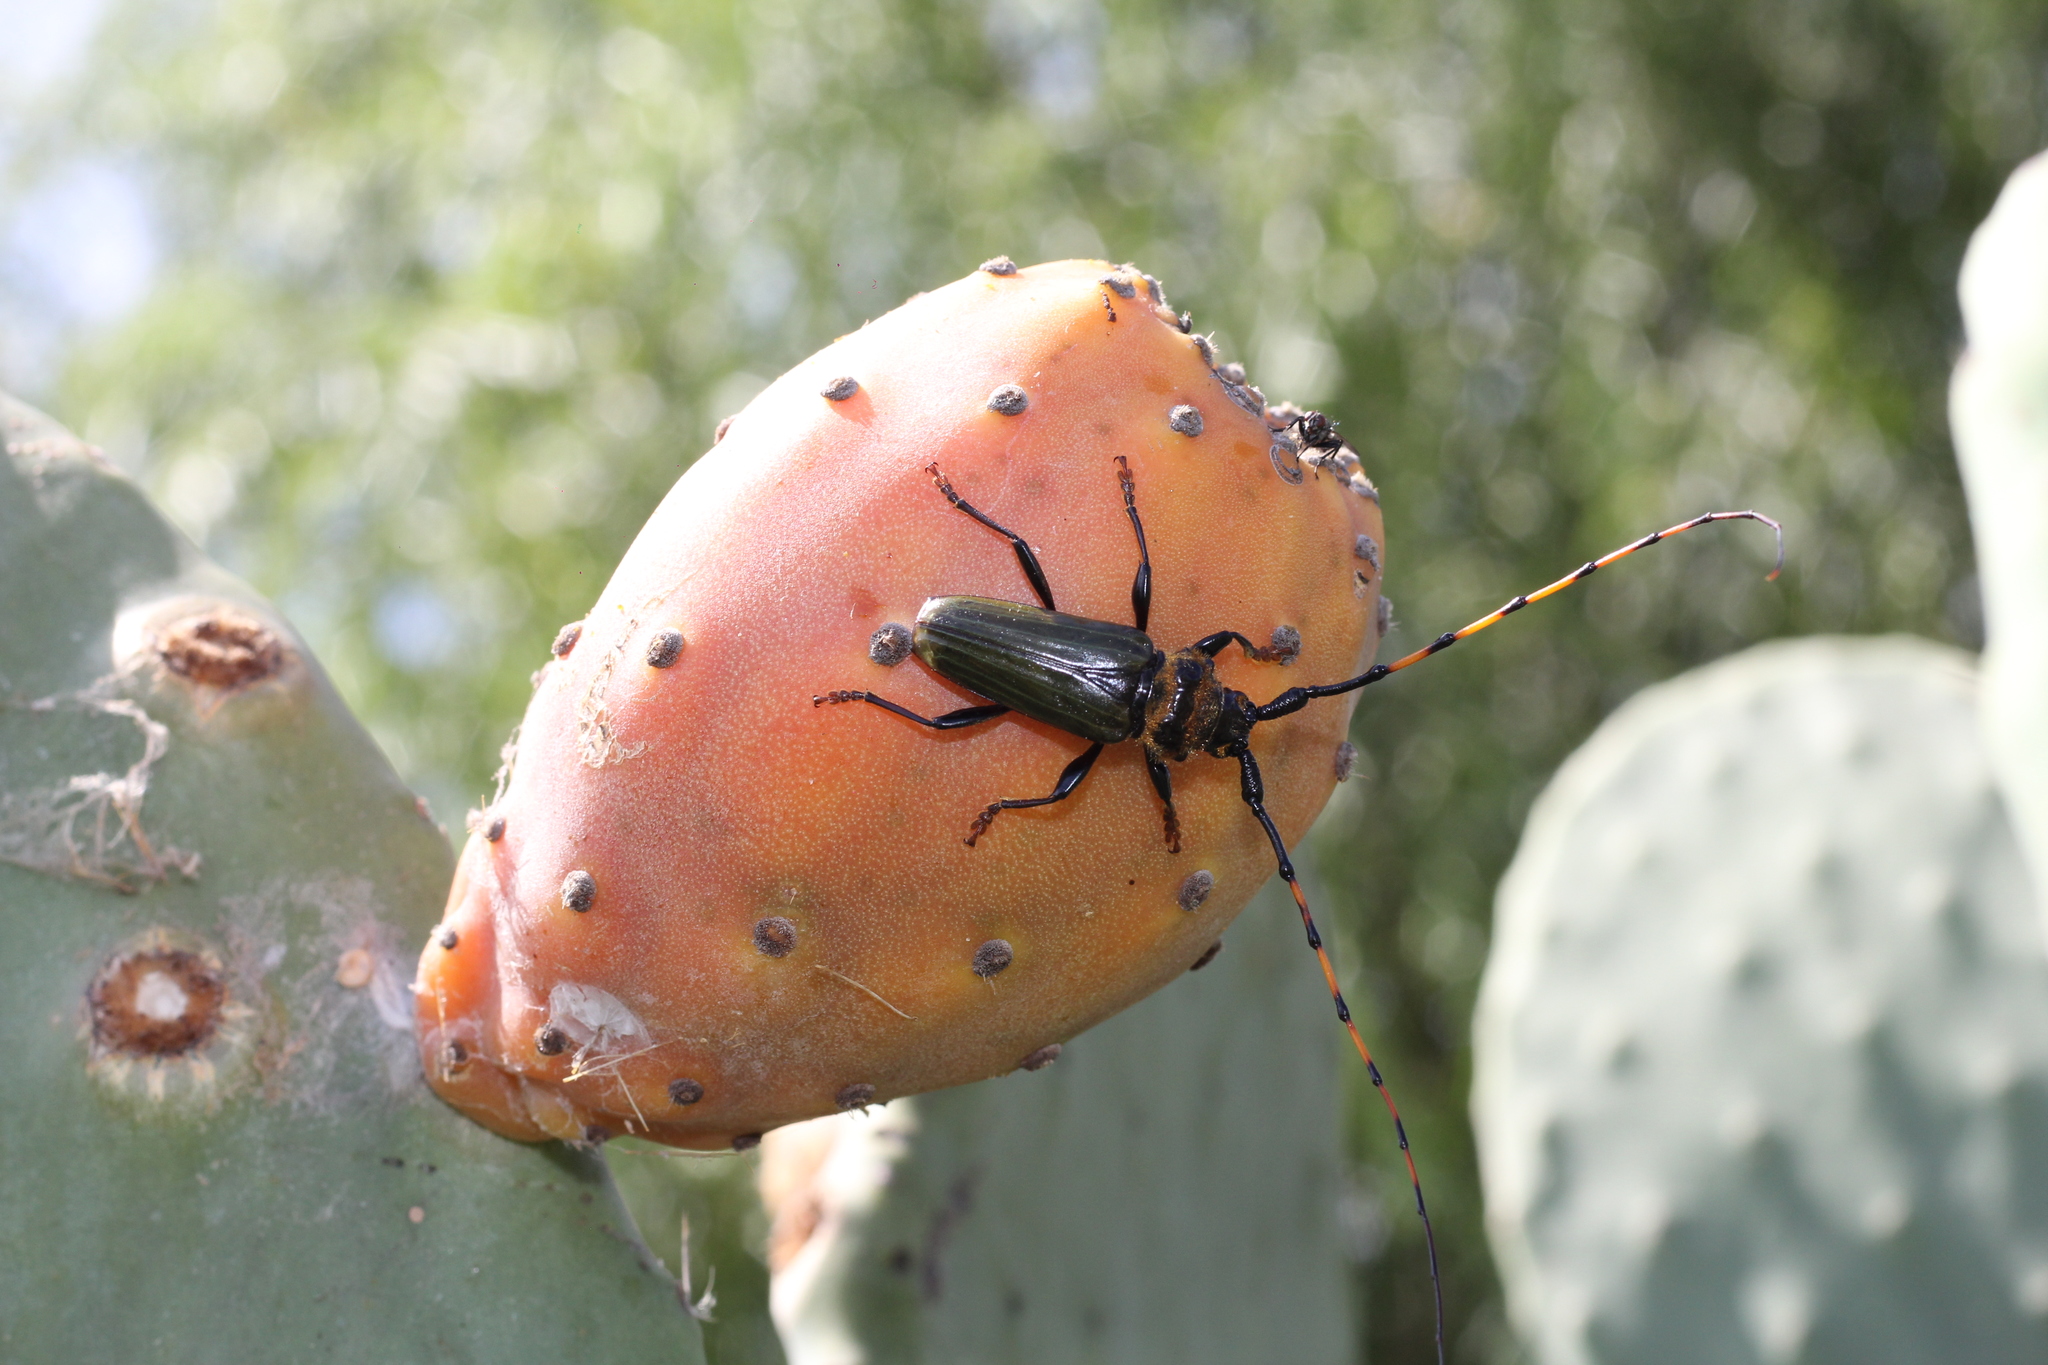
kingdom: Animalia
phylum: Arthropoda
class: Insecta
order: Coleoptera
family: Cerambycidae
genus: Retrachydes
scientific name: Retrachydes thoracicus
